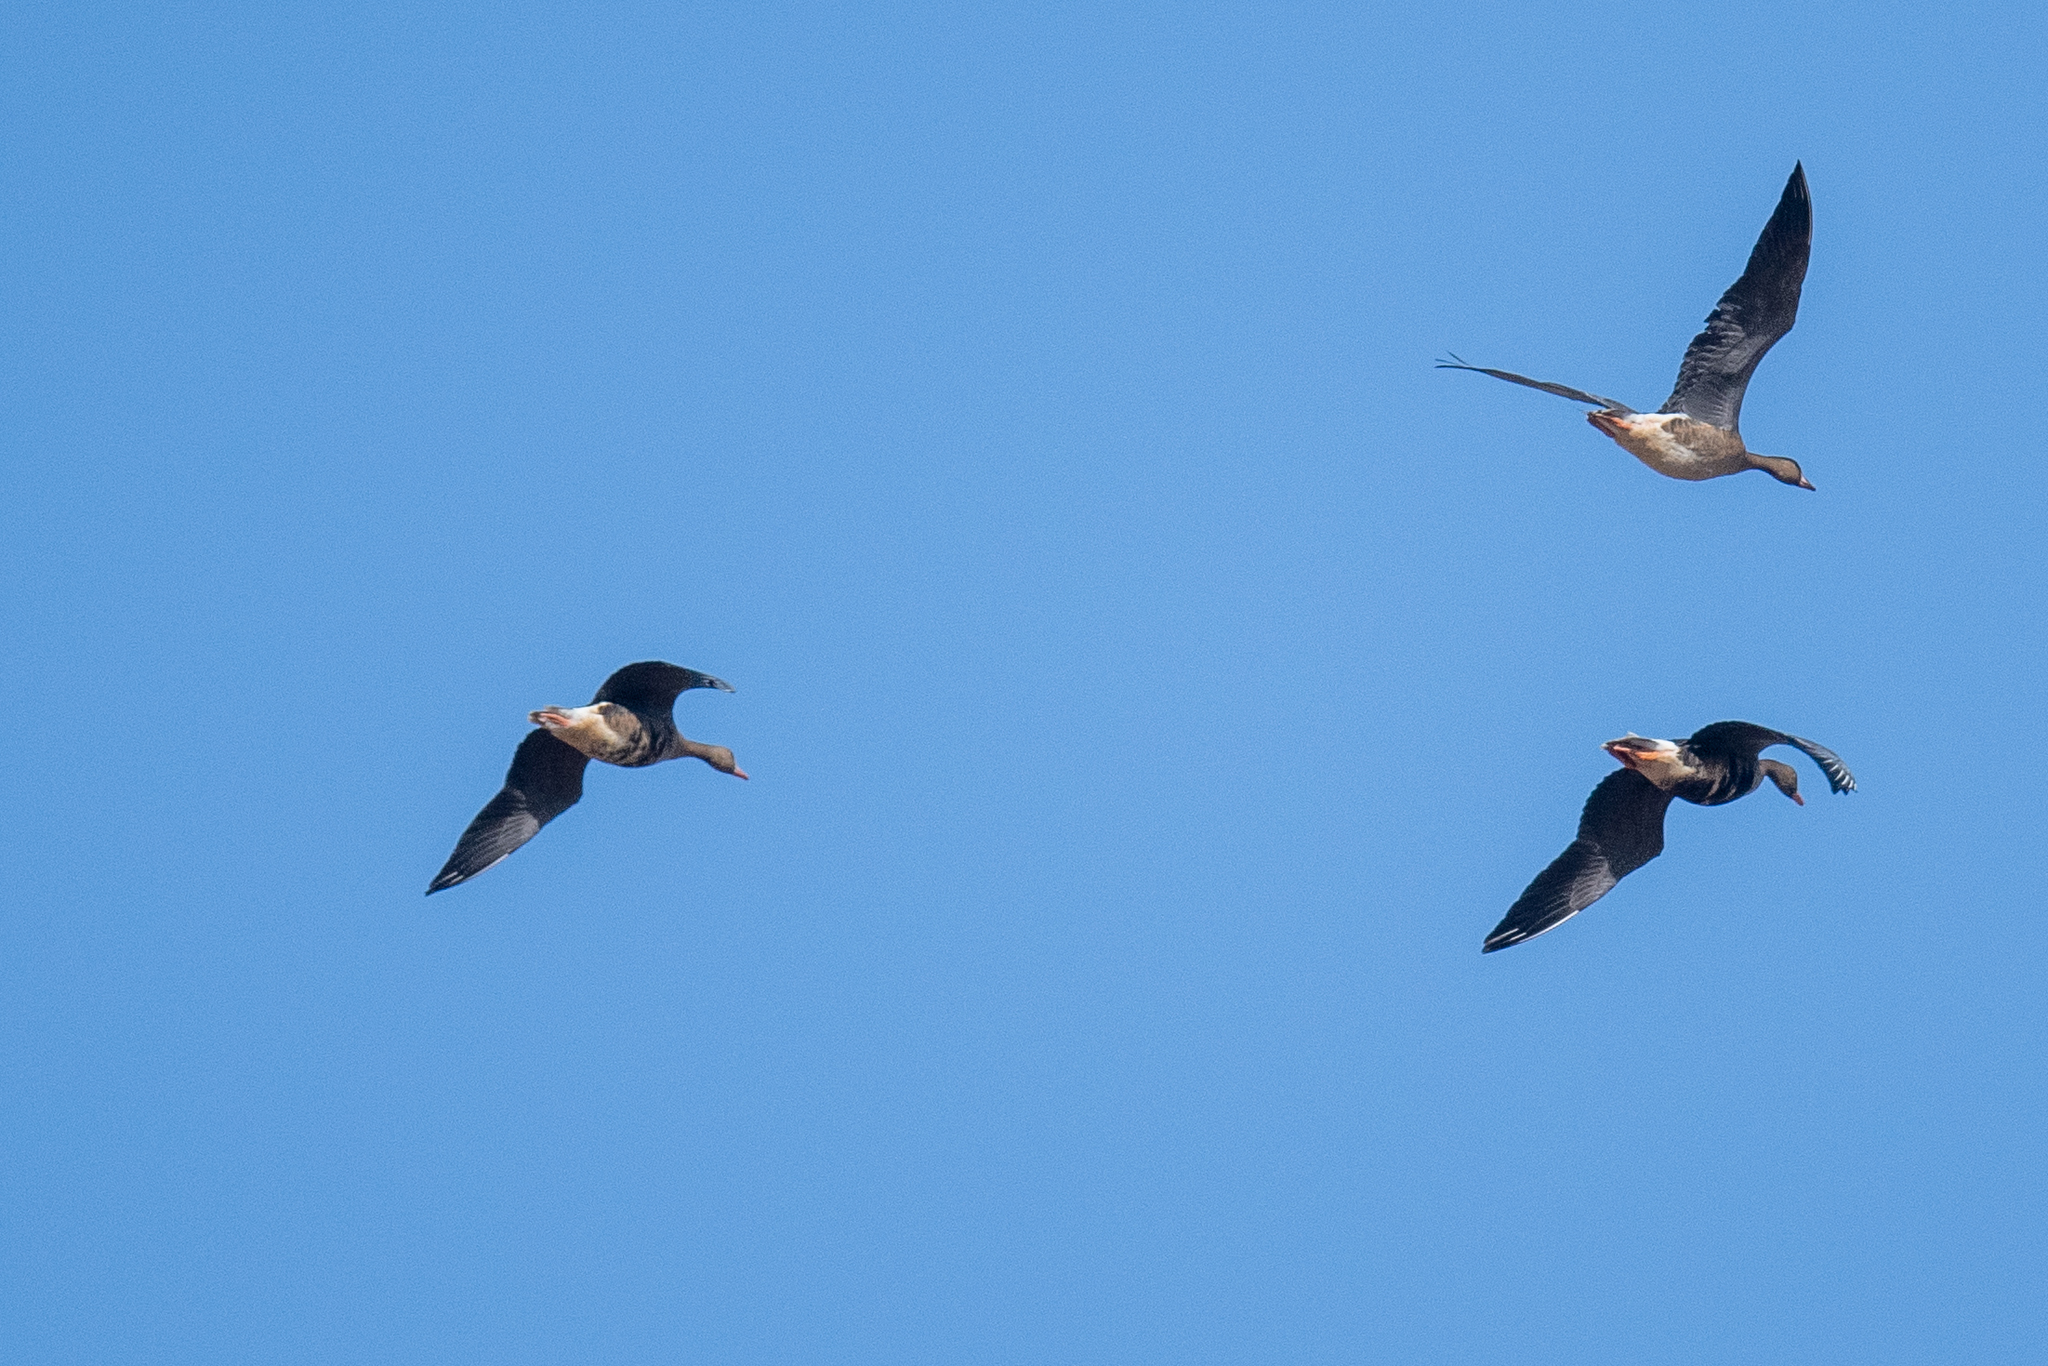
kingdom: Animalia
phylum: Chordata
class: Aves
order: Anseriformes
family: Anatidae
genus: Anser
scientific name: Anser albifrons
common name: Greater white-fronted goose
